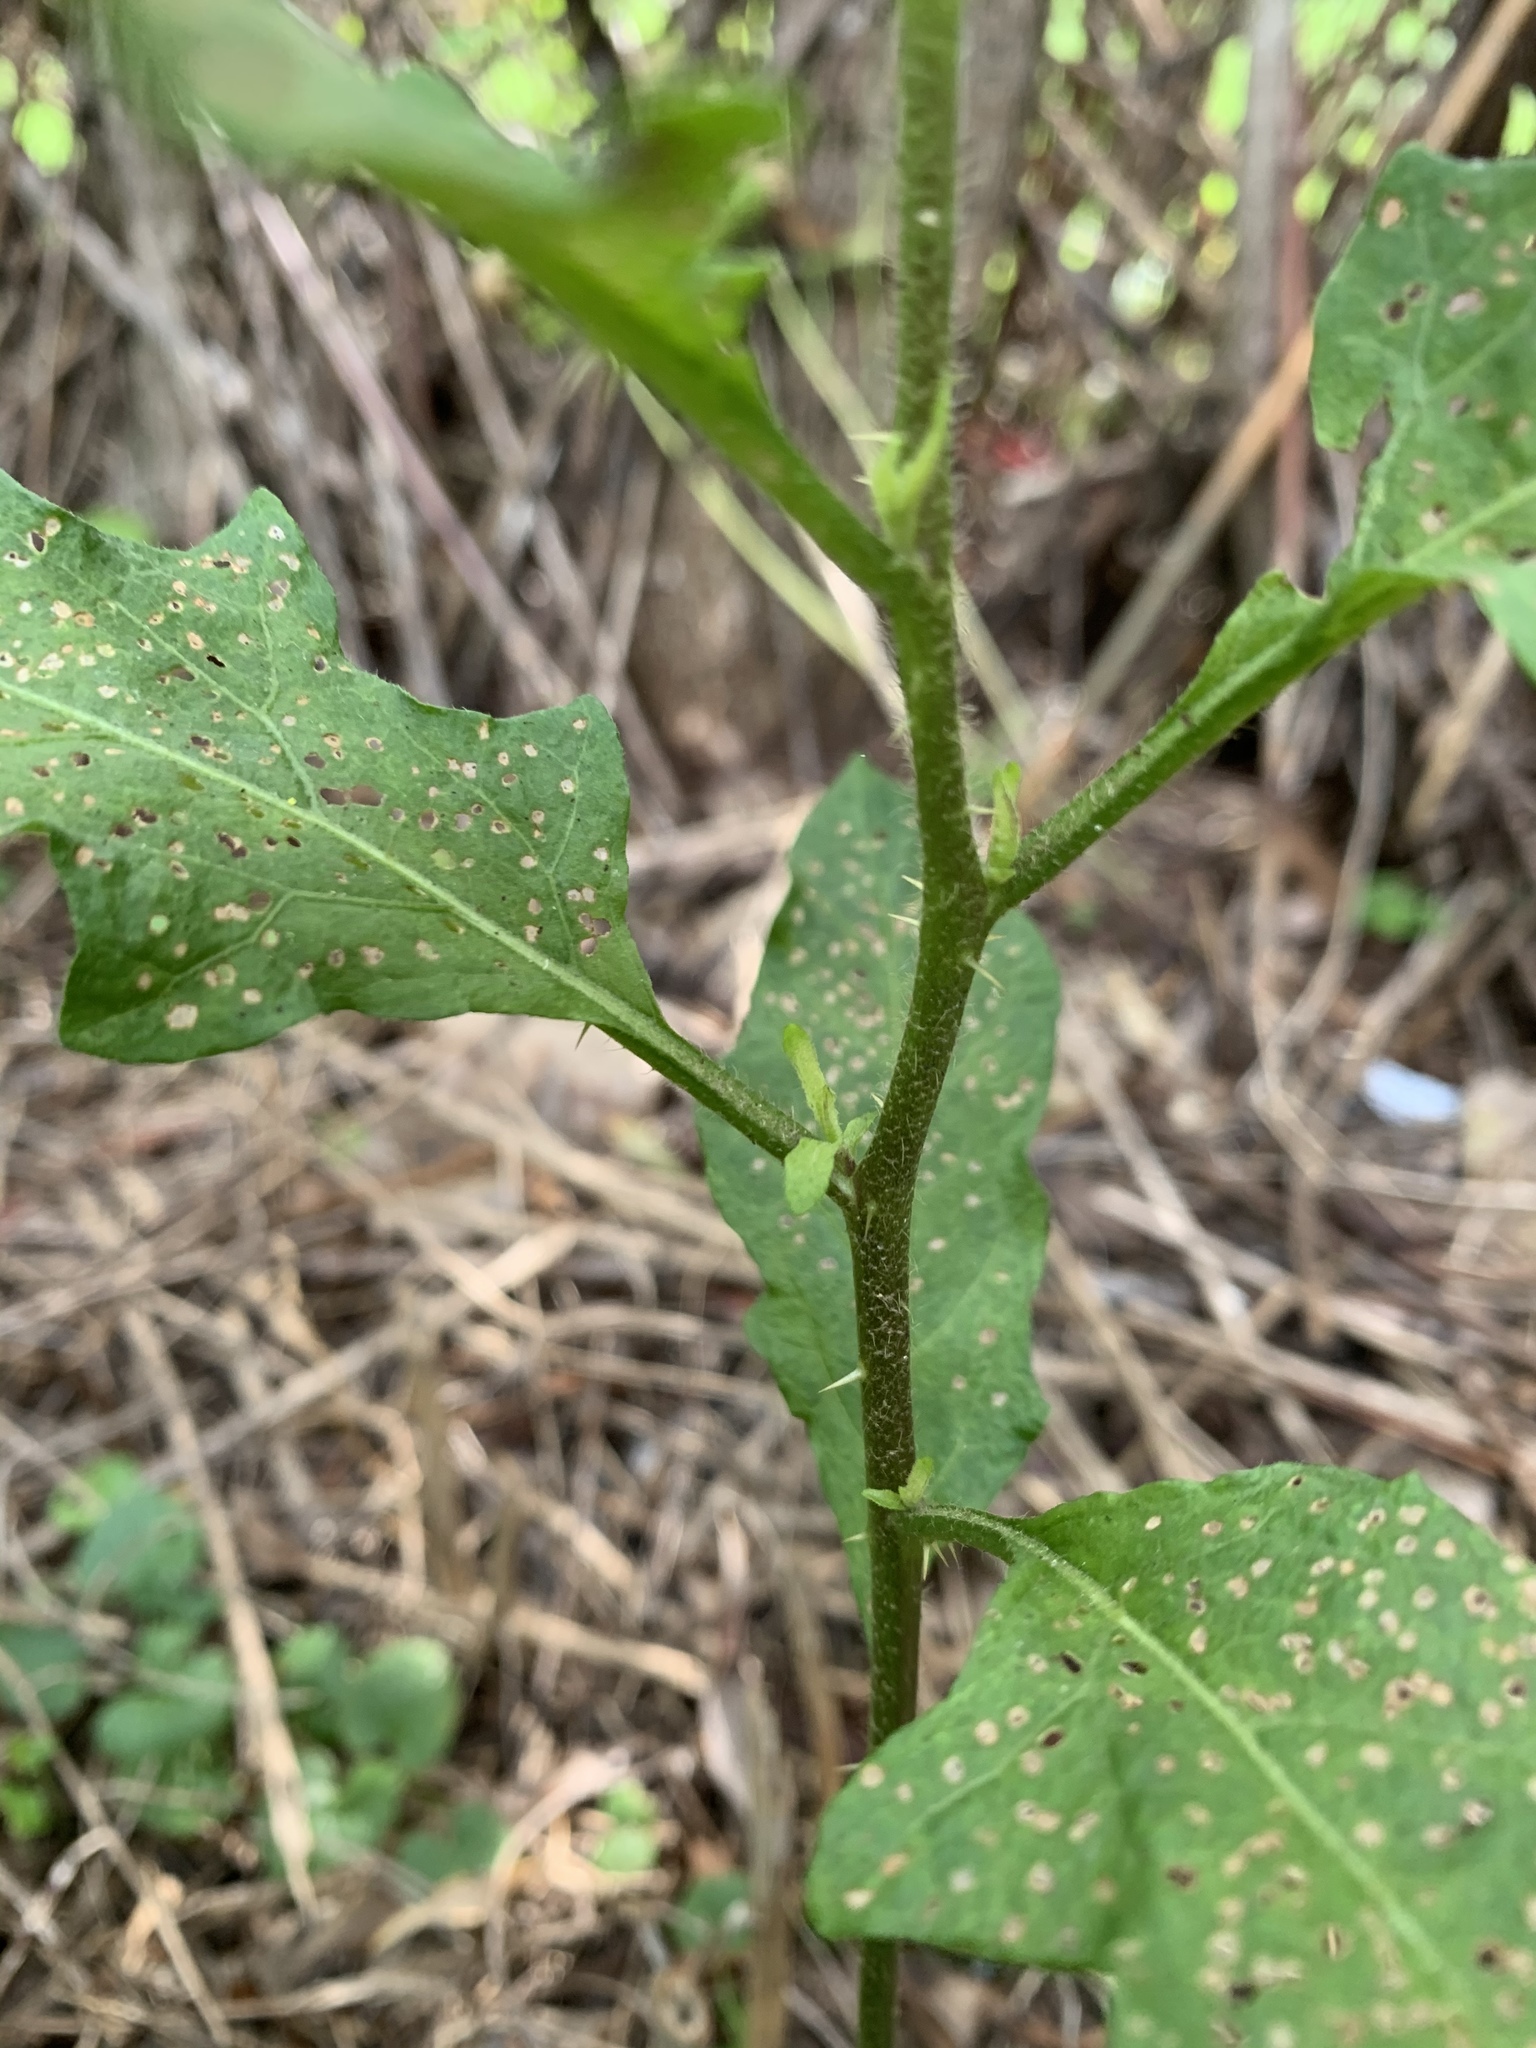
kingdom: Plantae
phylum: Tracheophyta
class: Magnoliopsida
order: Solanales
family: Solanaceae
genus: Solanum
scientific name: Solanum carolinense
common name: Horse-nettle
